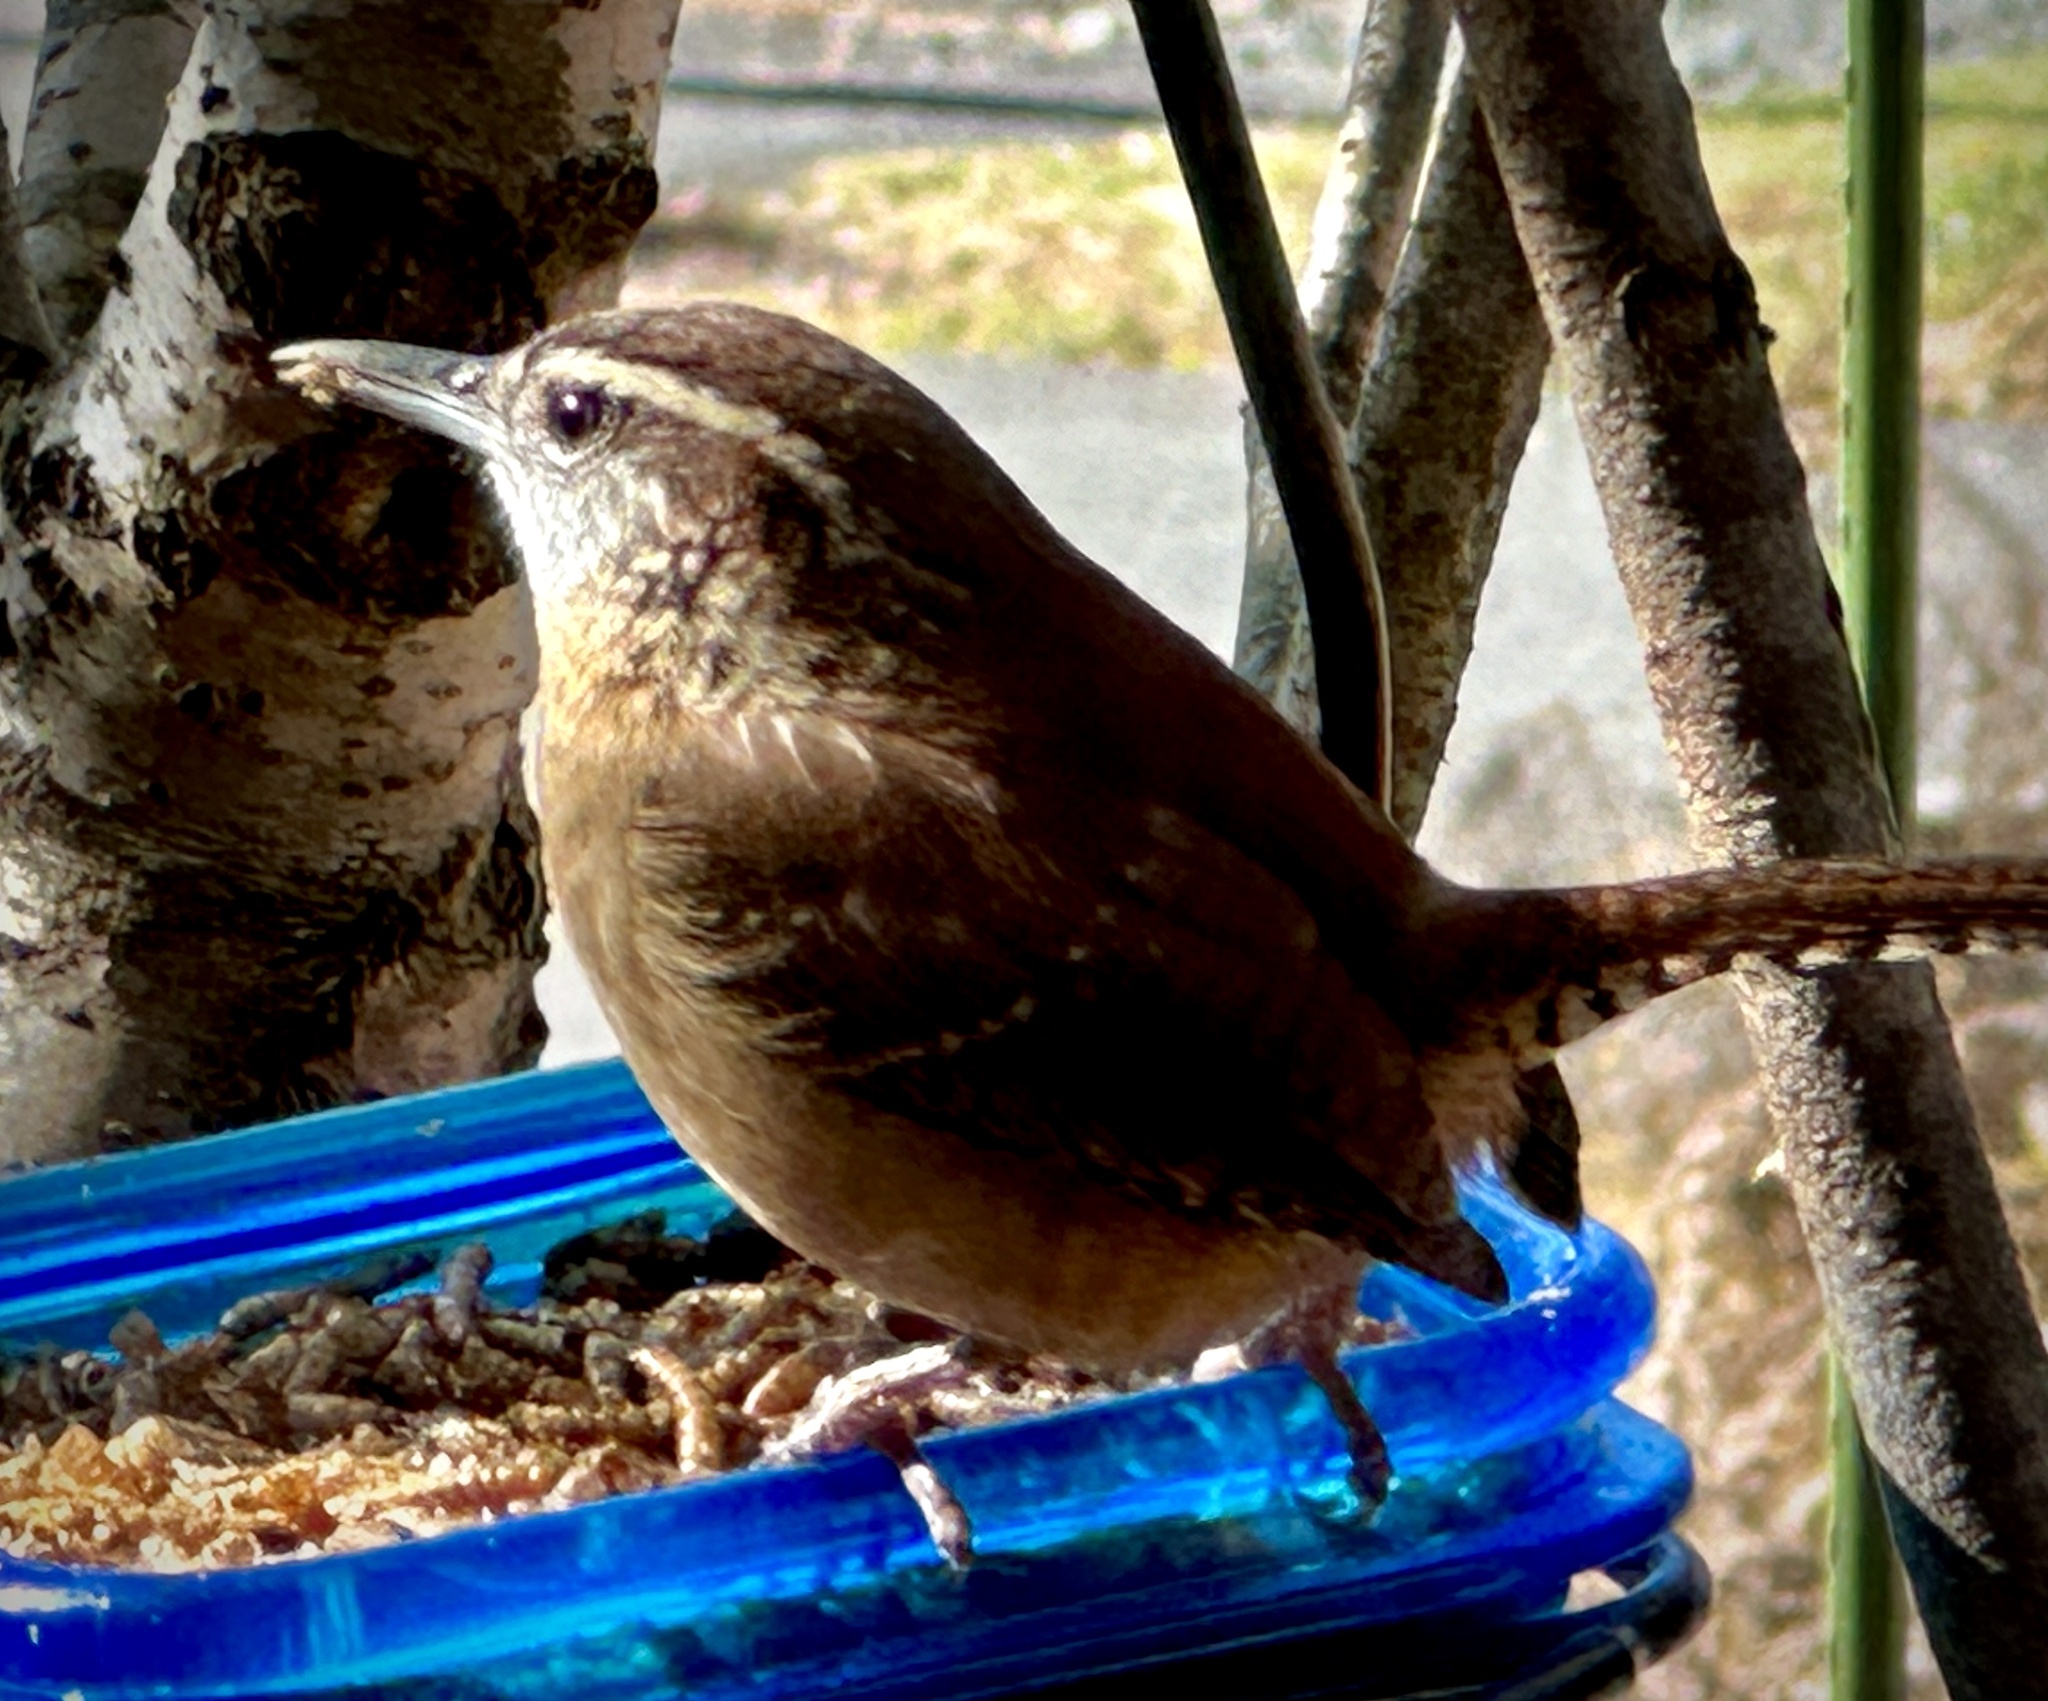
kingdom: Animalia
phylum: Chordata
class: Aves
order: Passeriformes
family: Troglodytidae
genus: Thryothorus
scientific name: Thryothorus ludovicianus
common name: Carolina wren
